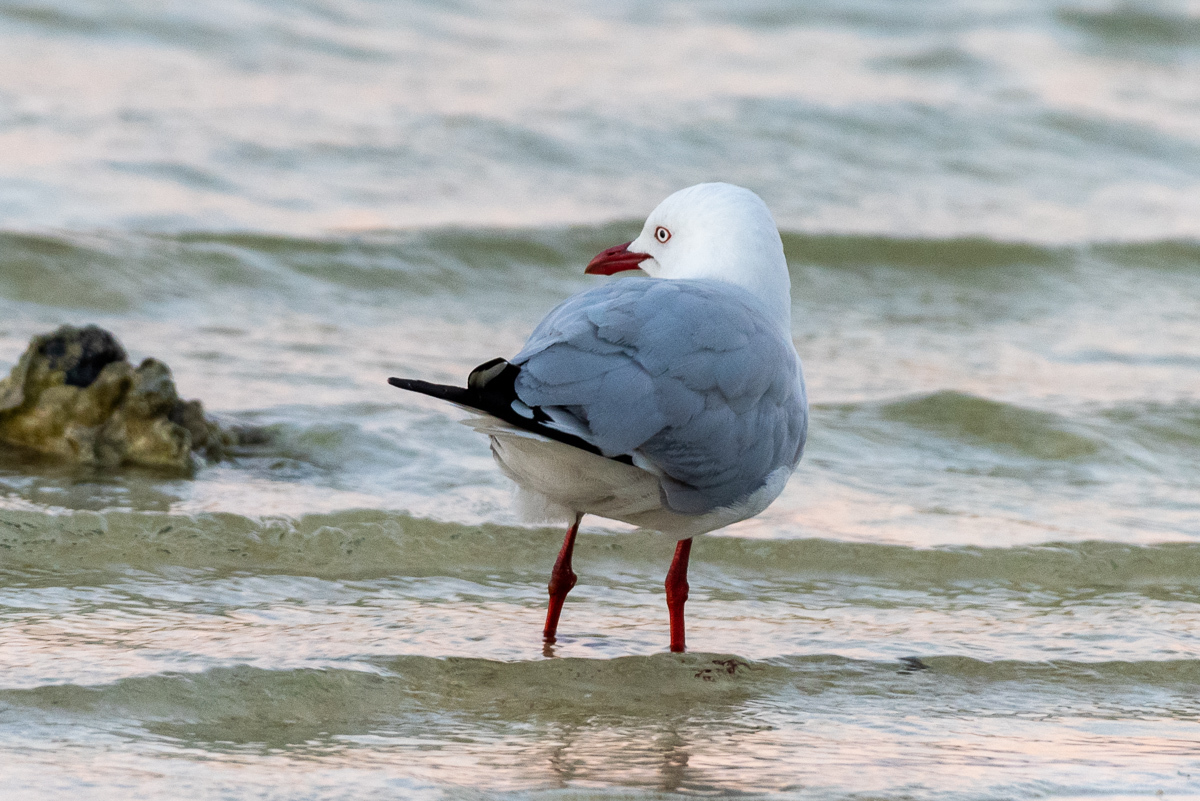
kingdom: Animalia
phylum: Chordata
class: Aves
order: Charadriiformes
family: Laridae
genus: Chroicocephalus
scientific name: Chroicocephalus novaehollandiae
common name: Silver gull
